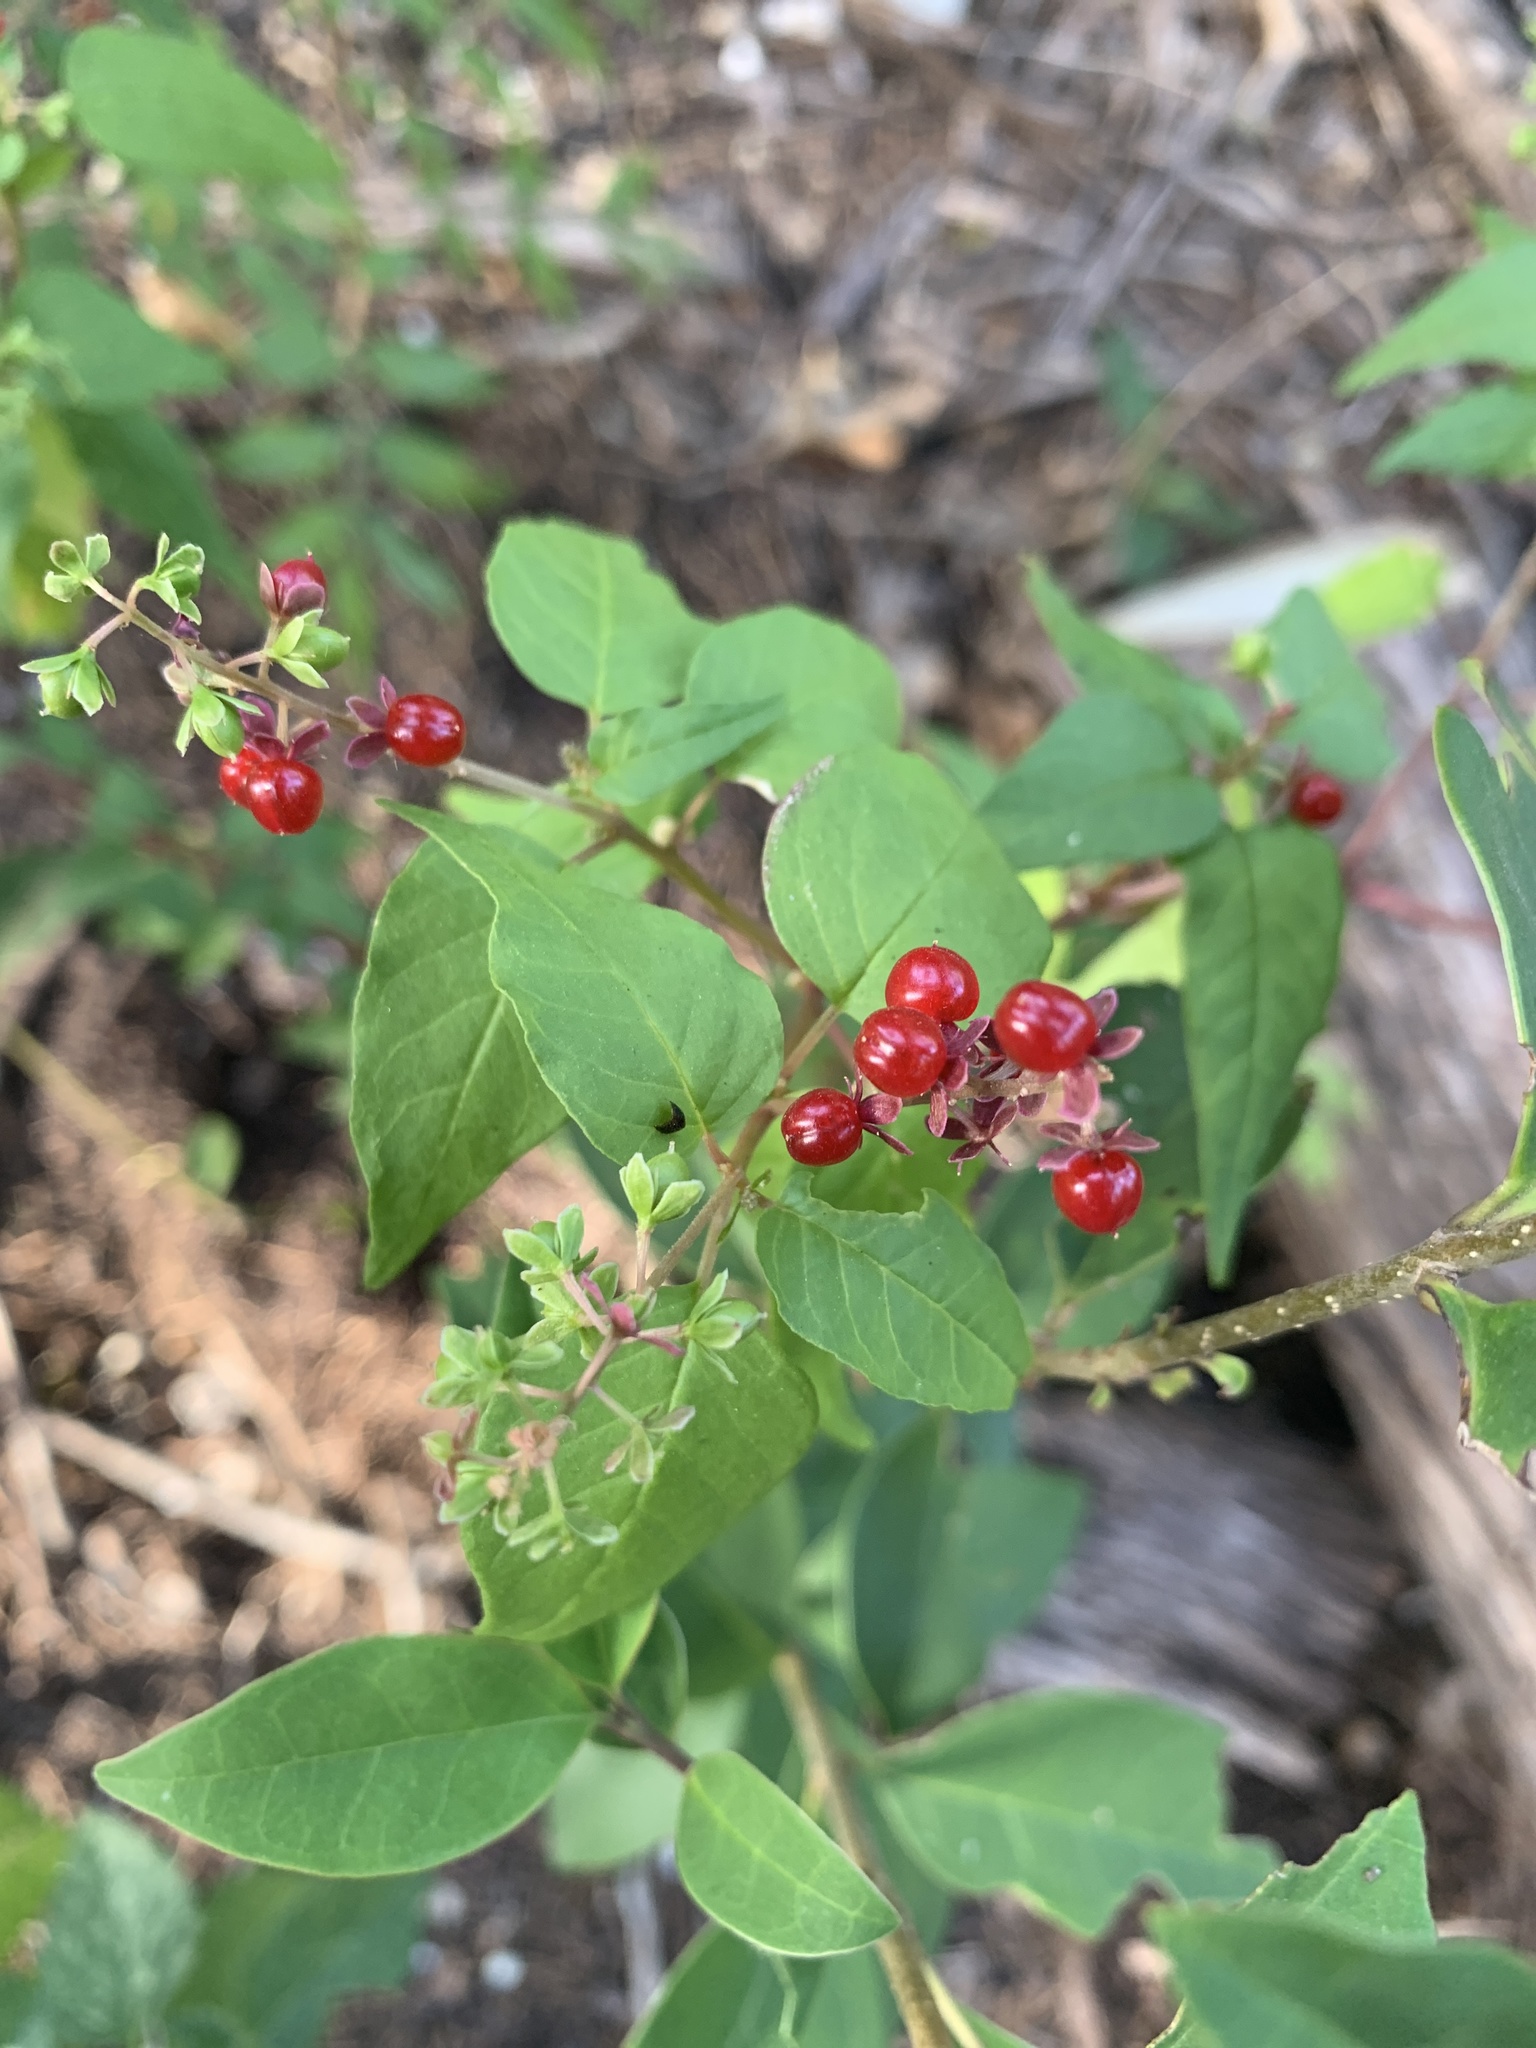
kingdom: Plantae
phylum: Tracheophyta
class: Magnoliopsida
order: Caryophyllales
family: Phytolaccaceae
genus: Rivina
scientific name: Rivina humilis
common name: Rougeplant
